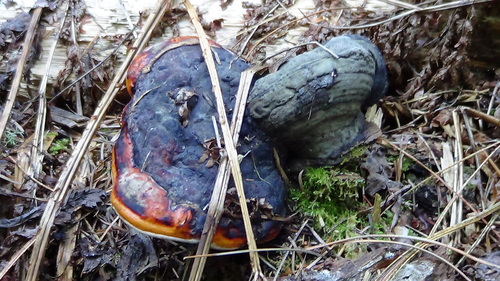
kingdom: Fungi
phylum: Basidiomycota
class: Agaricomycetes
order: Polyporales
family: Fomitopsidaceae
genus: Fomitopsis
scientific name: Fomitopsis pinicola
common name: Red-belted bracket
